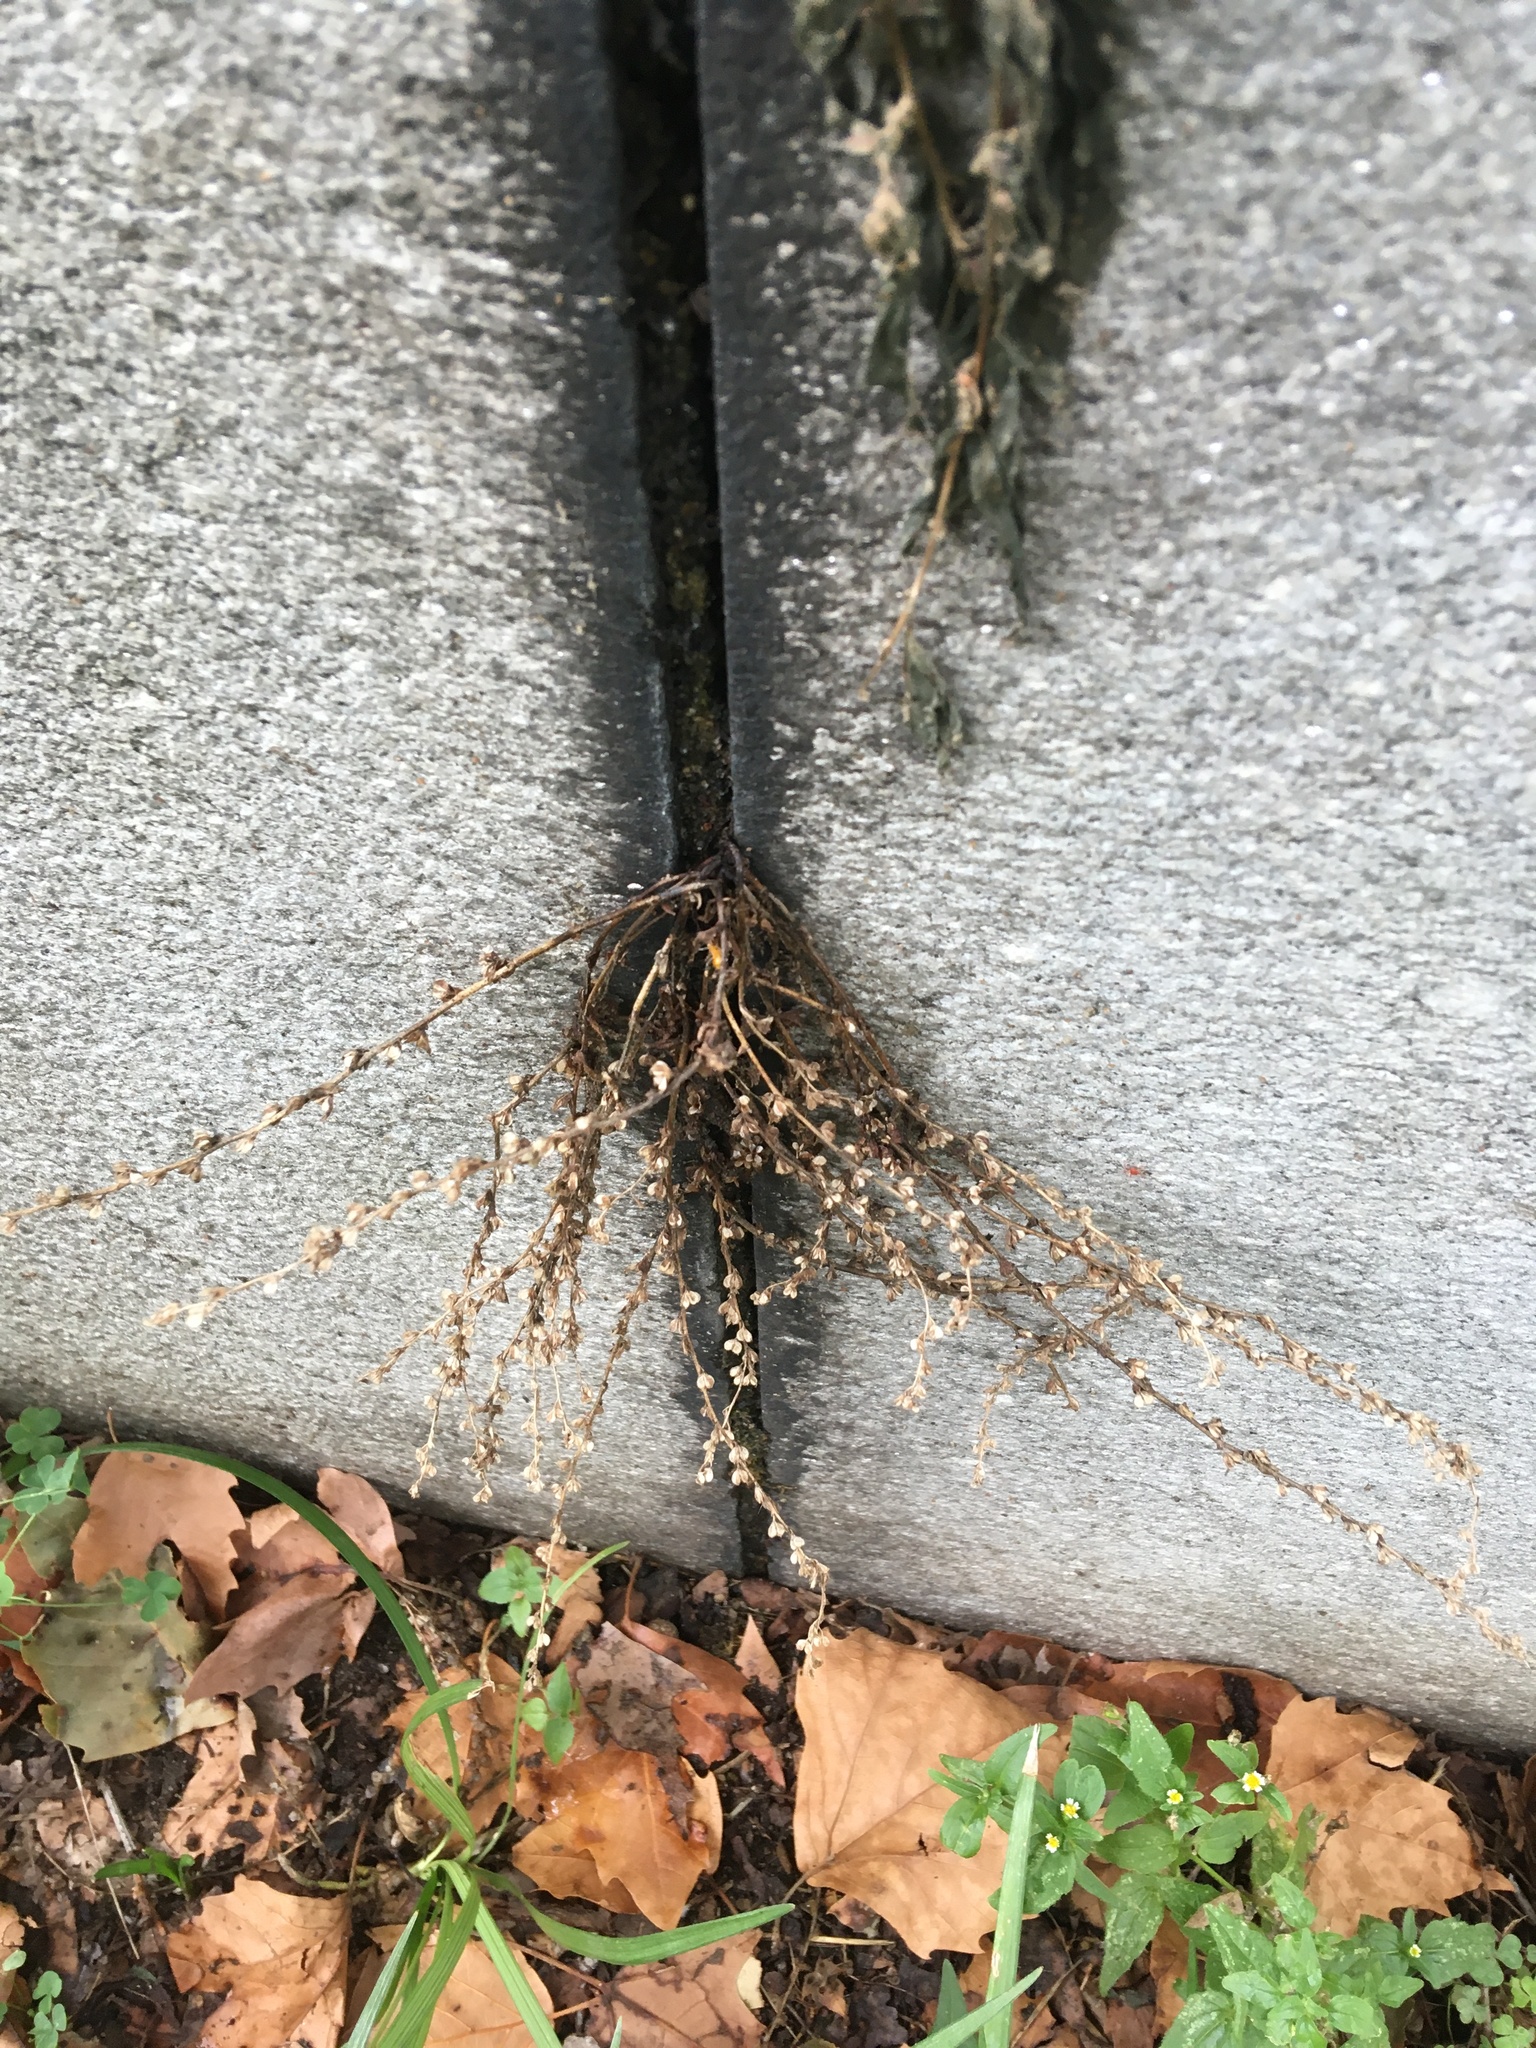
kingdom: Plantae
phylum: Tracheophyta
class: Magnoliopsida
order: Lamiales
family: Plantaginaceae
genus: Veronica
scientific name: Veronica peregrina
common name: Neckweed
